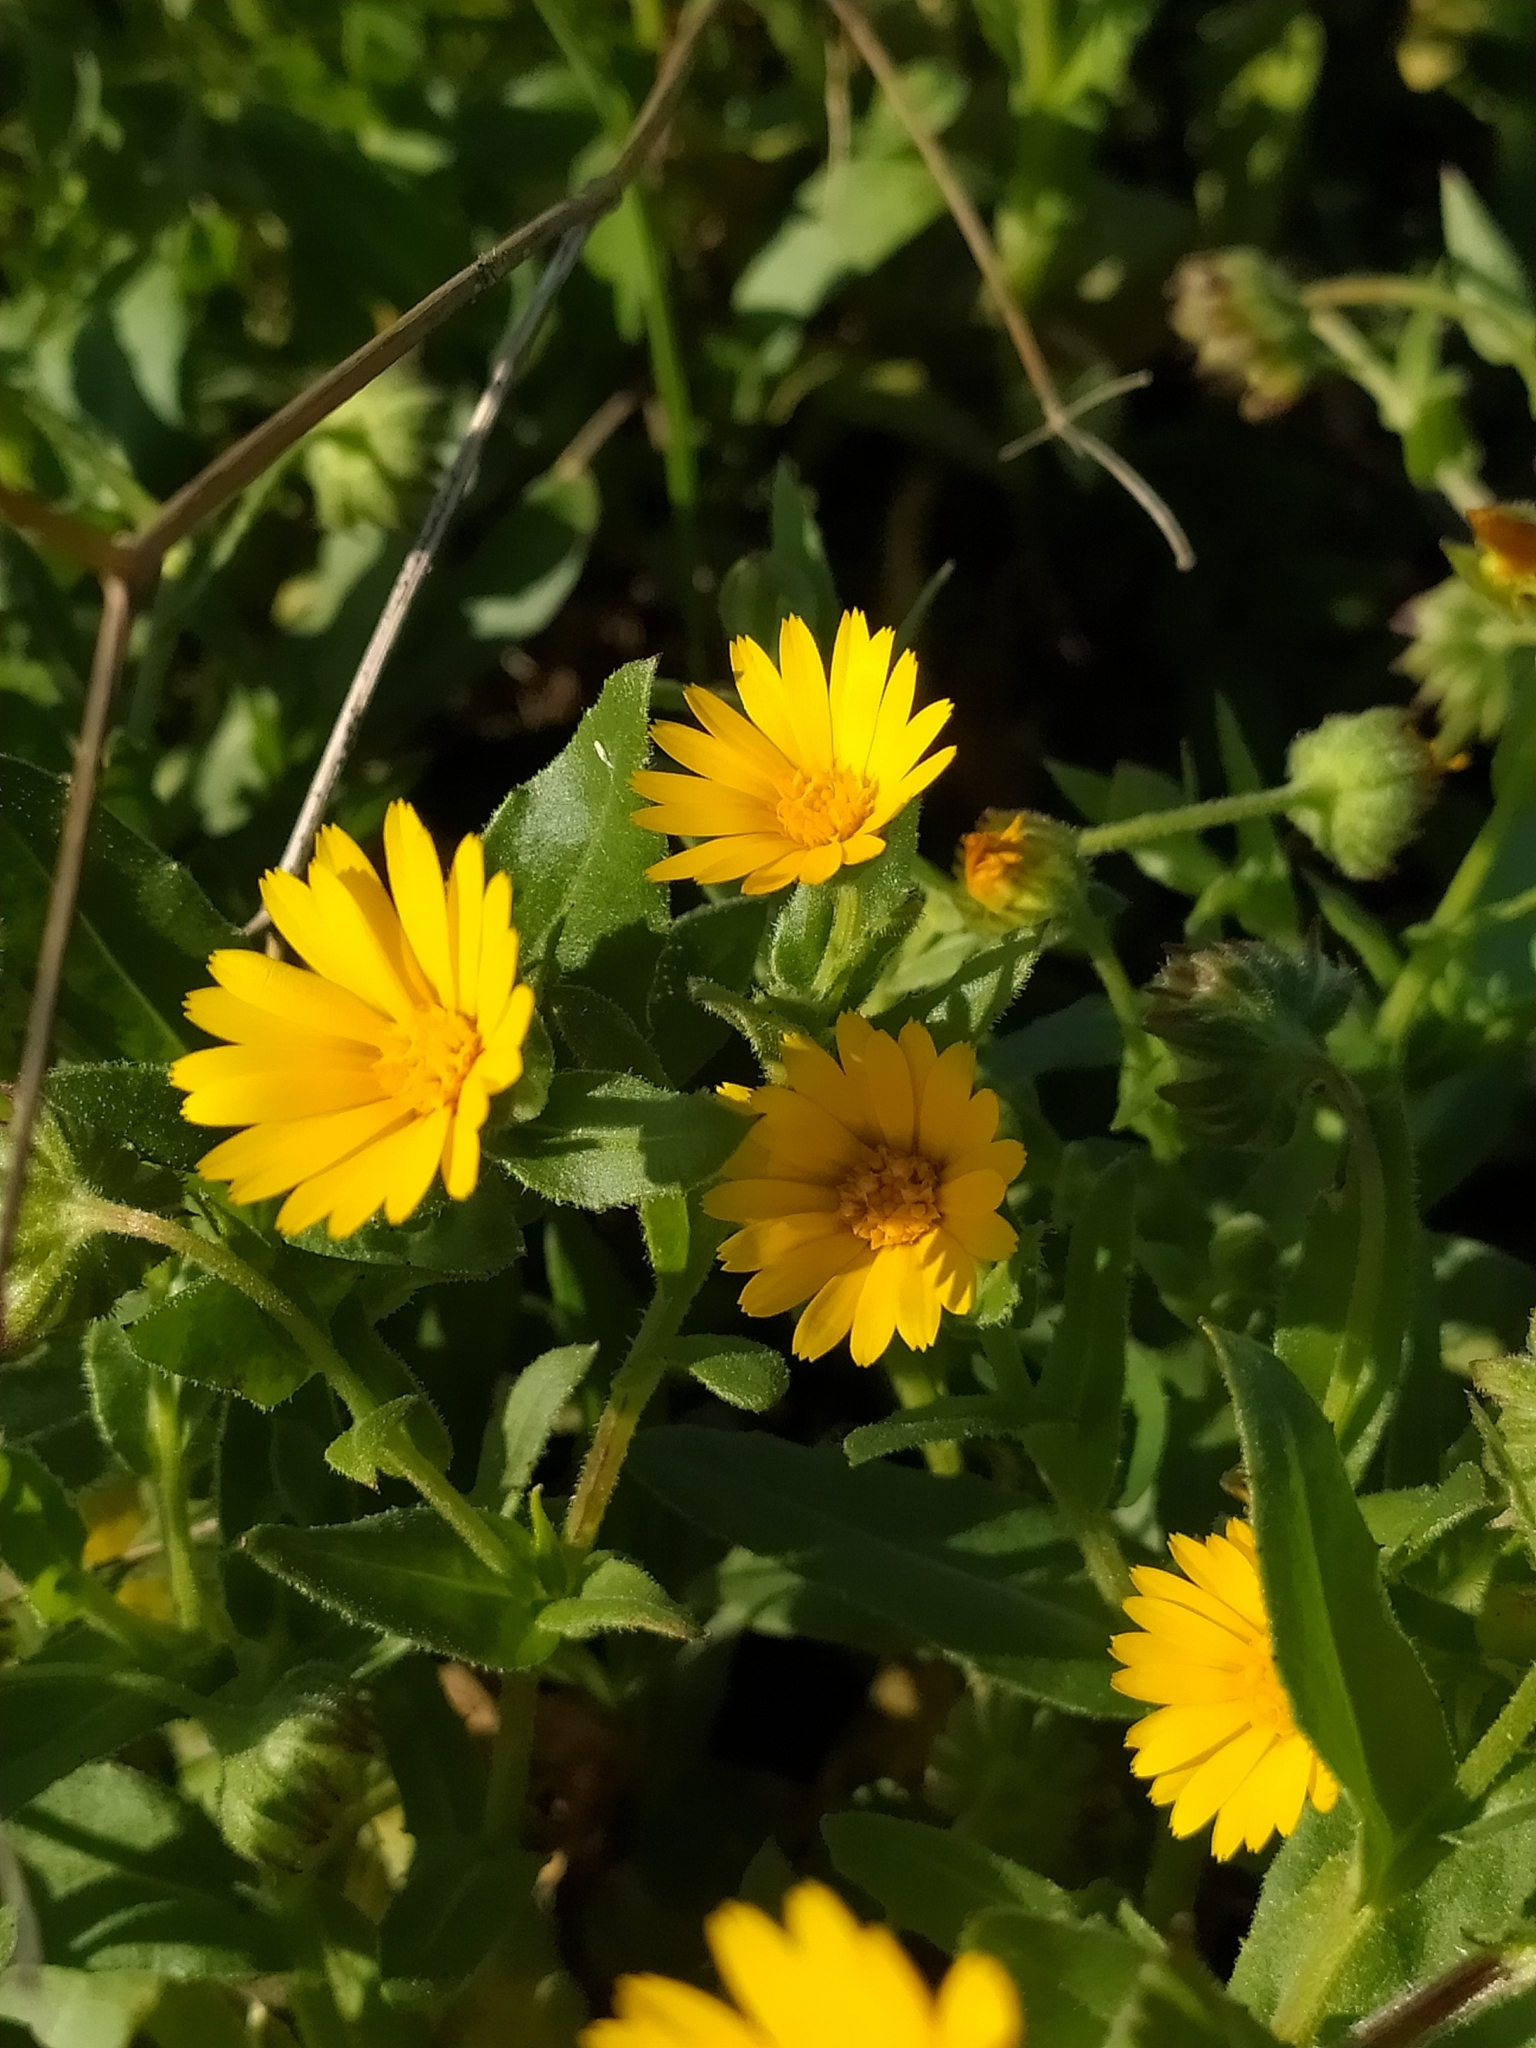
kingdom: Plantae
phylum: Tracheophyta
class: Magnoliopsida
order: Asterales
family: Asteraceae
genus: Calendula
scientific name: Calendula arvensis
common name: Field marigold
